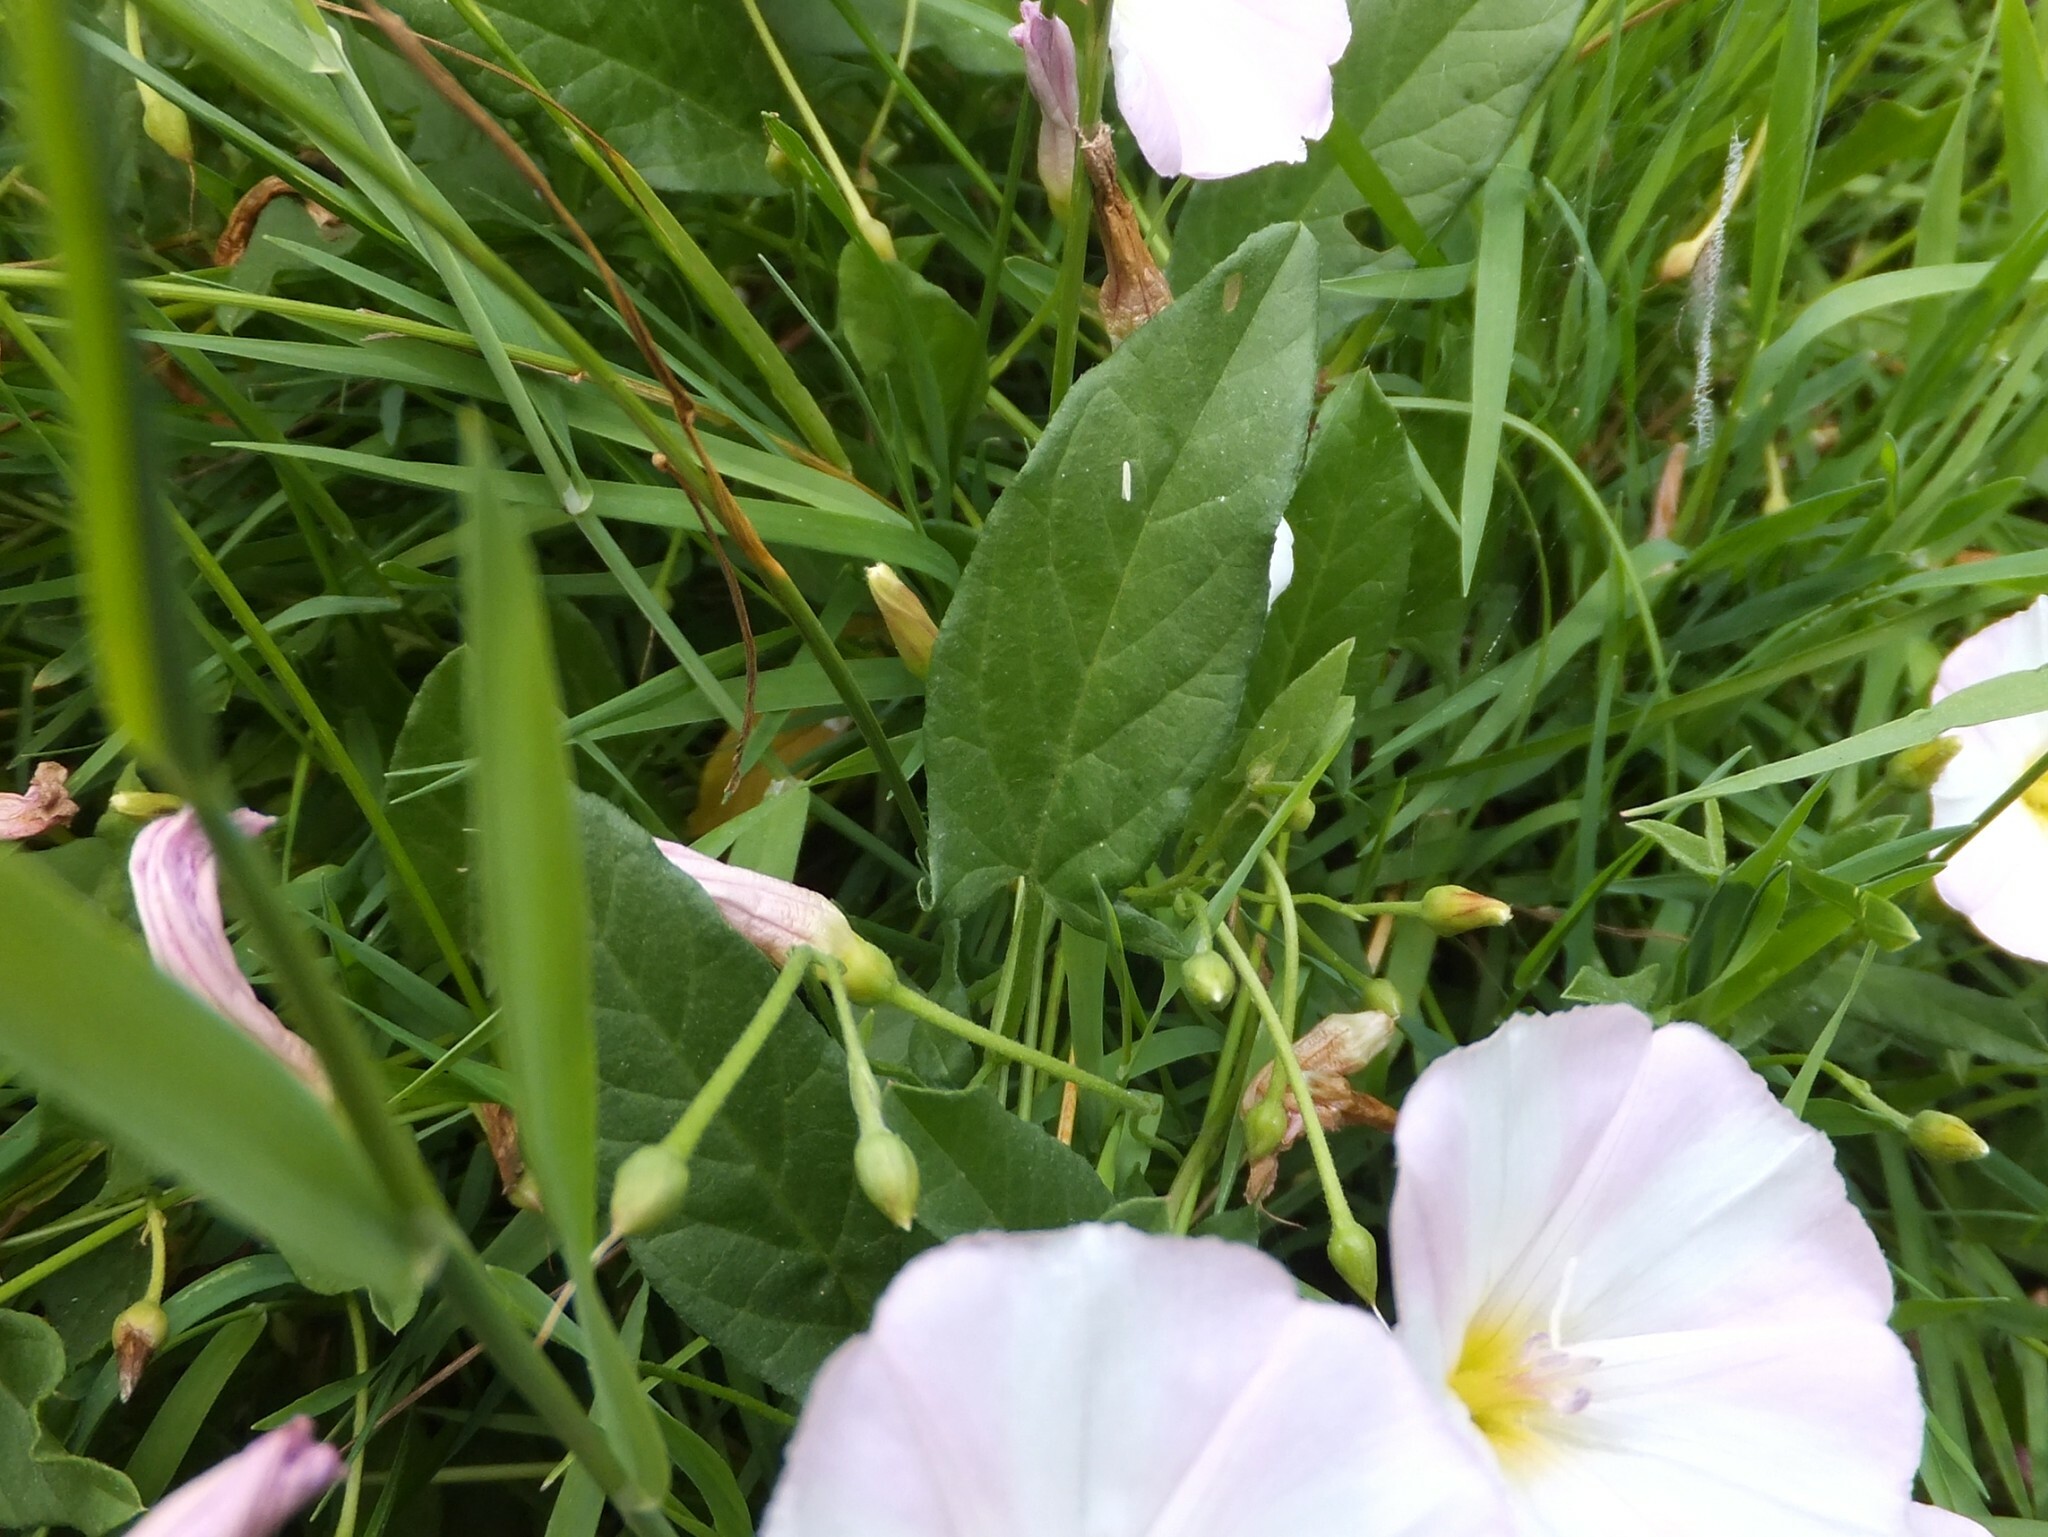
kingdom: Plantae
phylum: Tracheophyta
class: Magnoliopsida
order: Solanales
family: Convolvulaceae
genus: Convolvulus
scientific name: Convolvulus arvensis
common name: Field bindweed
